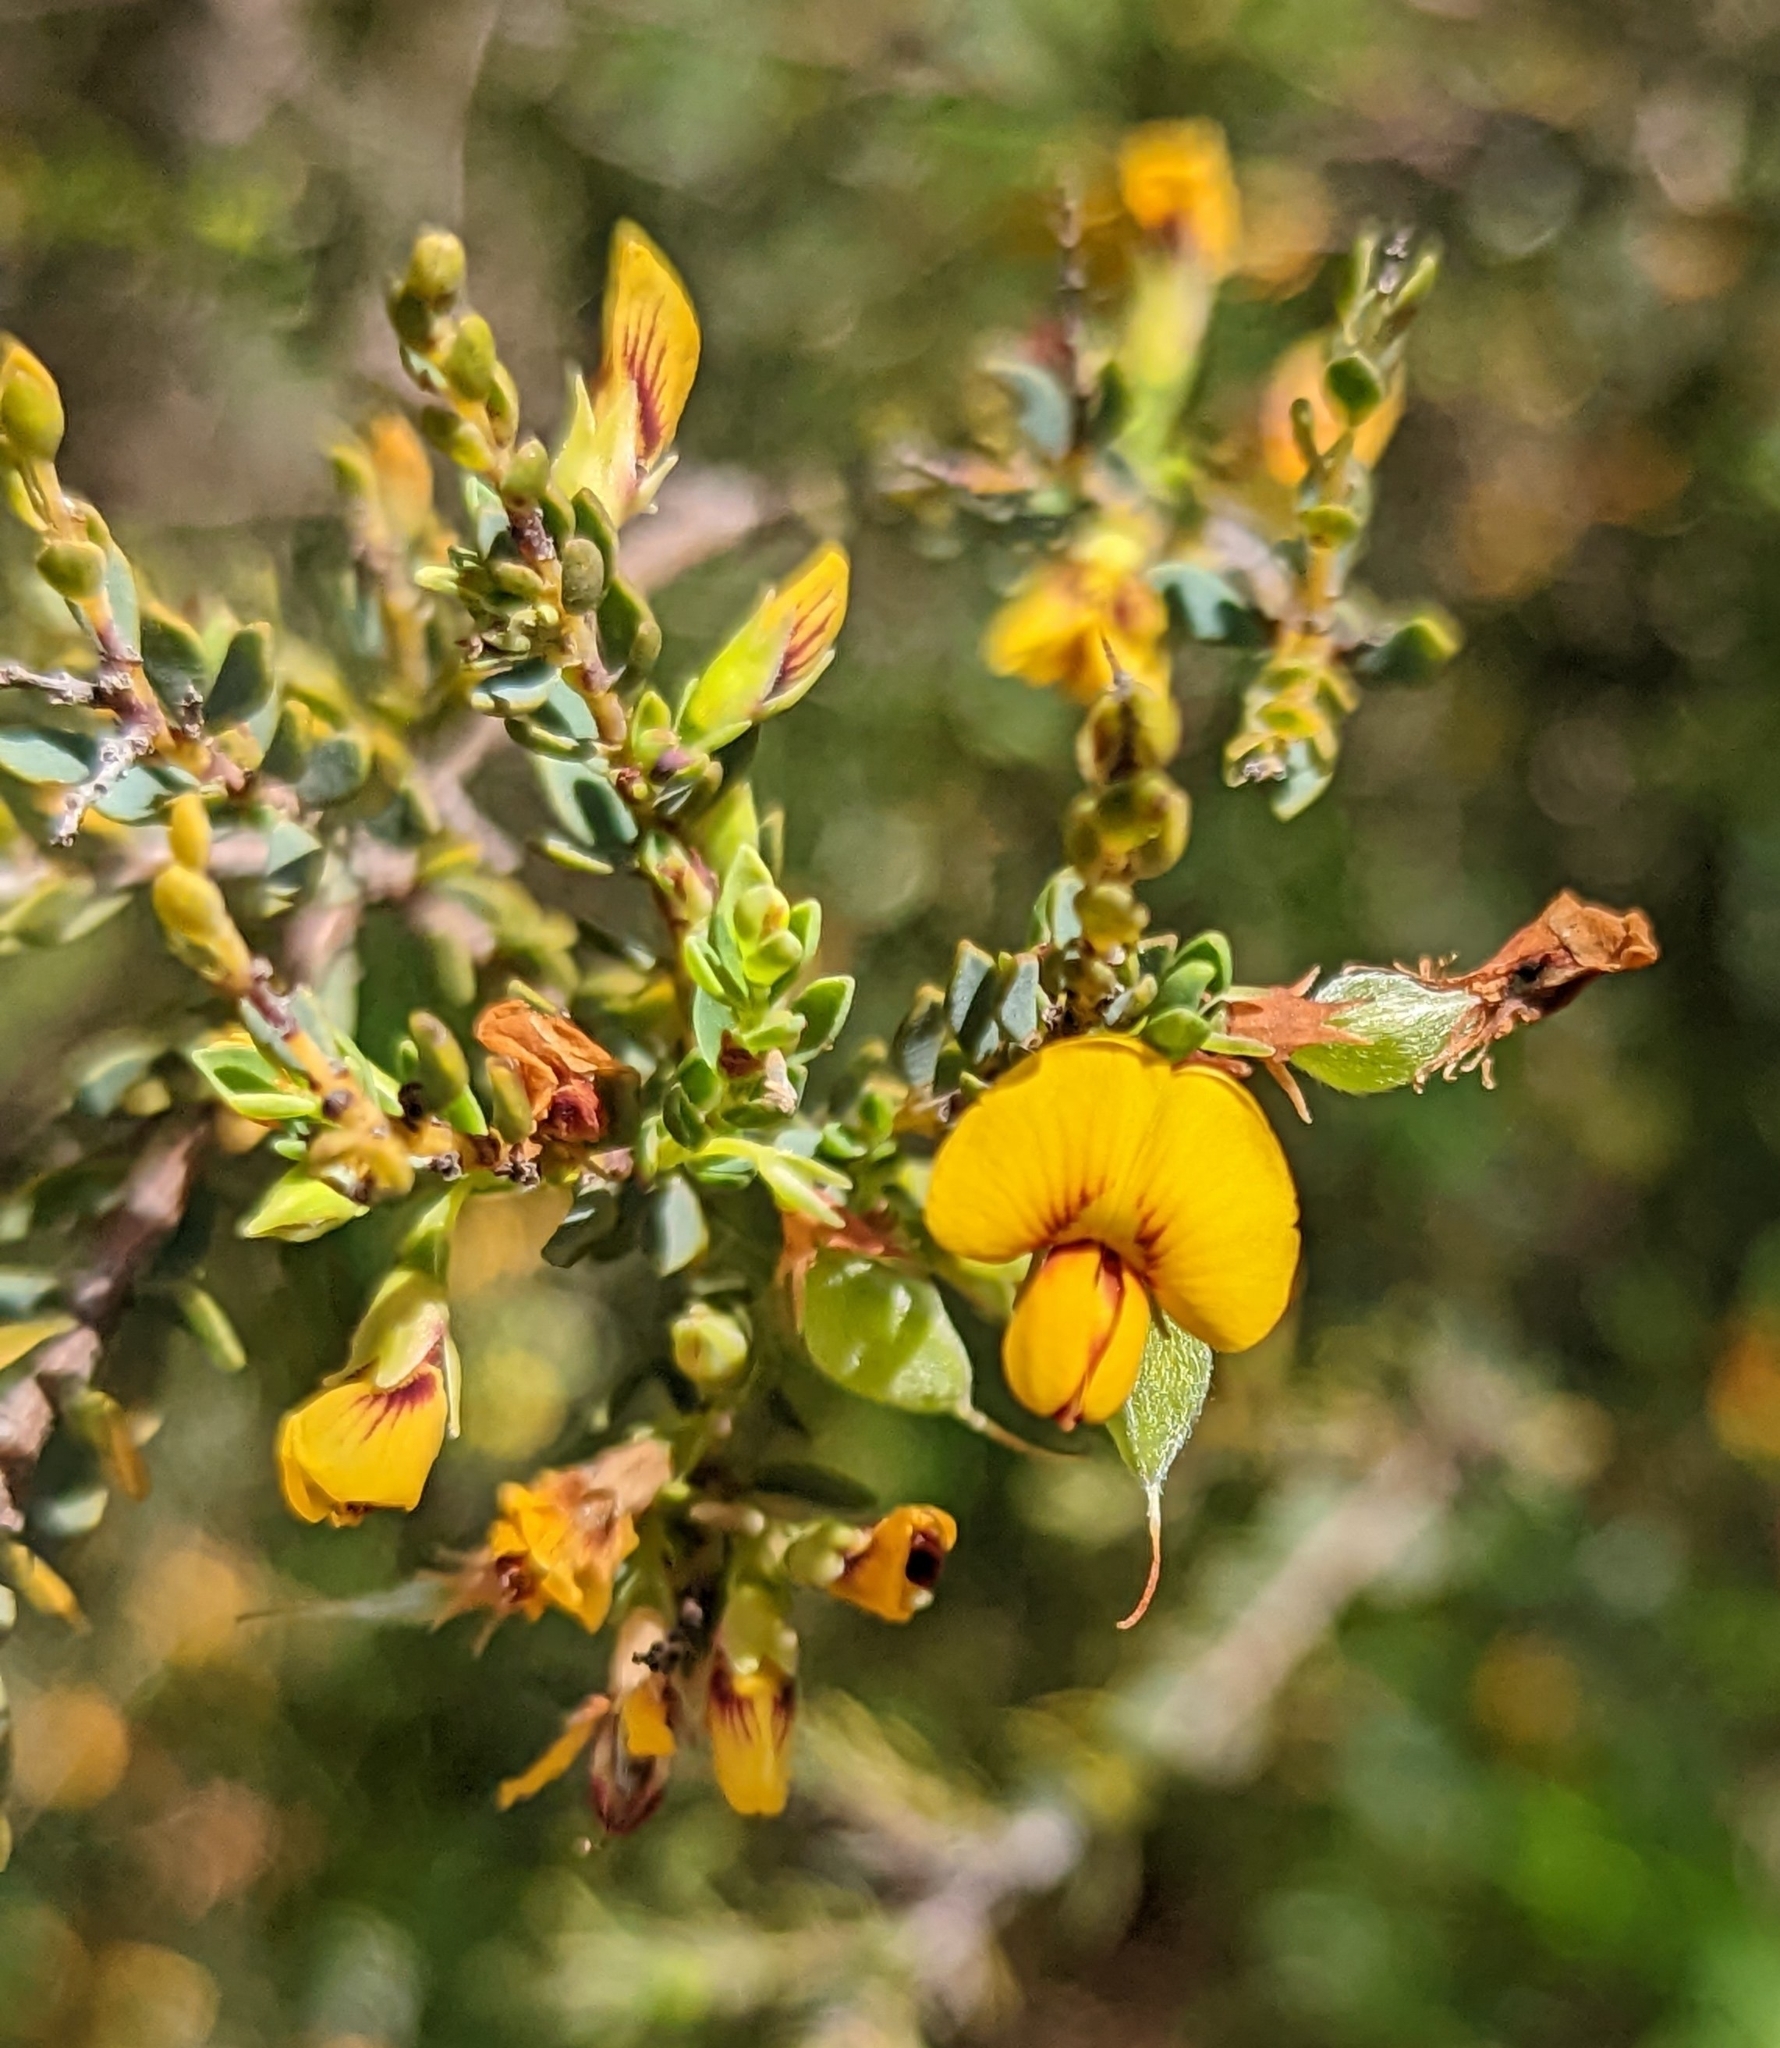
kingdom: Plantae
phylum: Tracheophyta
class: Magnoliopsida
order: Fabales
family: Fabaceae
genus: Eutaxia
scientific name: Eutaxia diffusa
